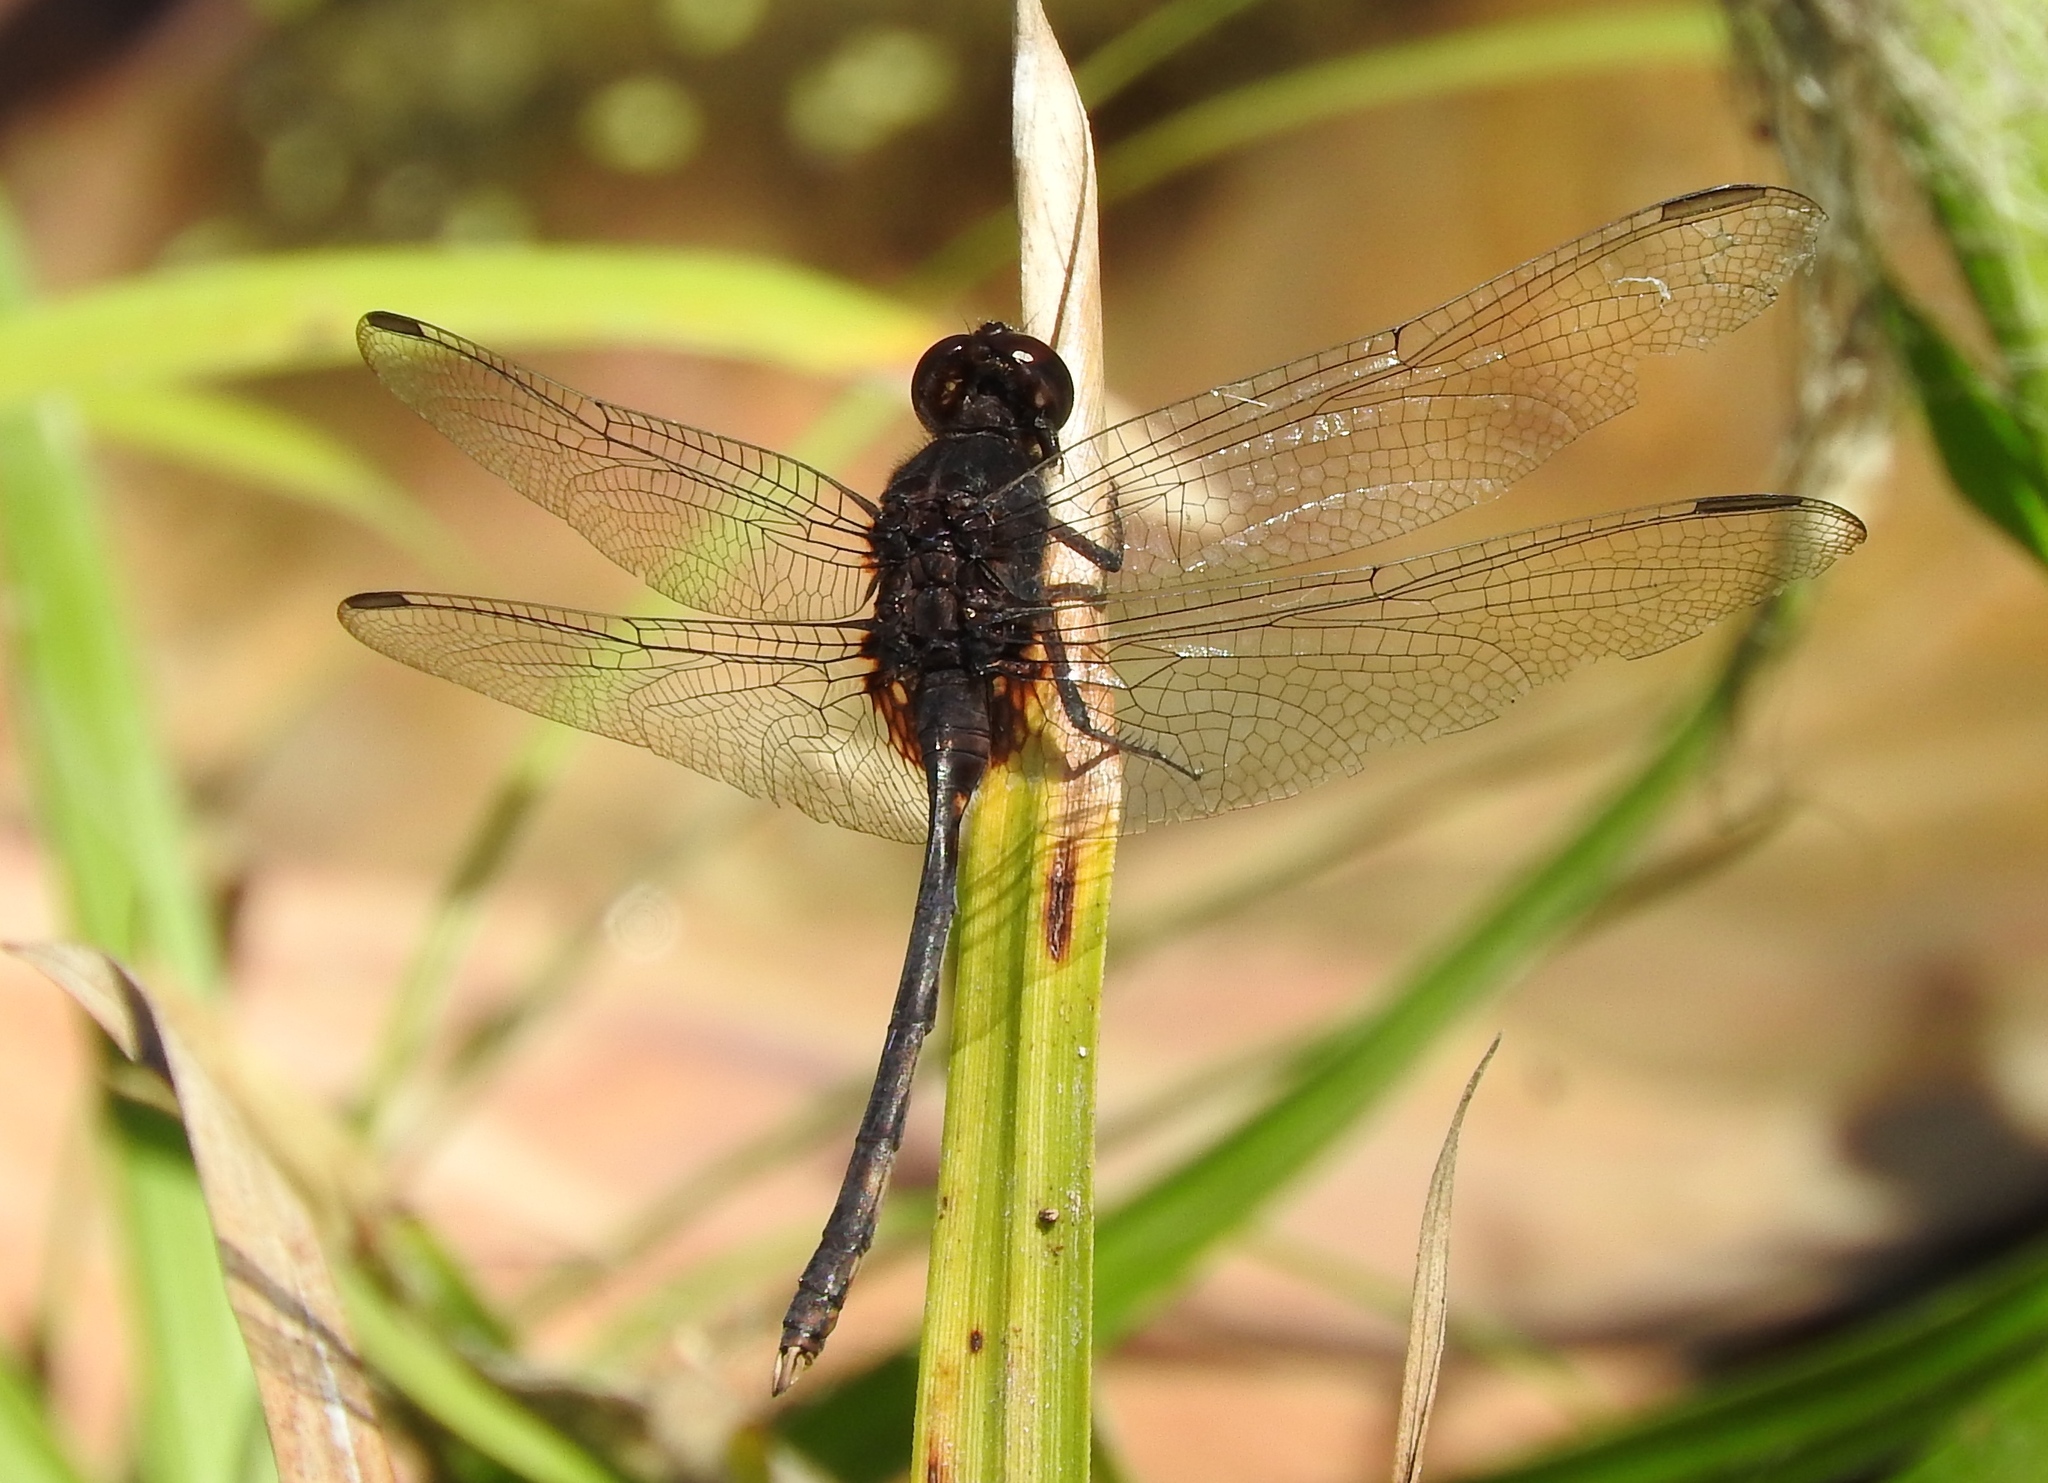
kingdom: Animalia
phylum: Arthropoda
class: Insecta
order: Odonata
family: Libellulidae
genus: Erythemis
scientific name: Erythemis plebeja
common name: Pin-tailed pondhawk
